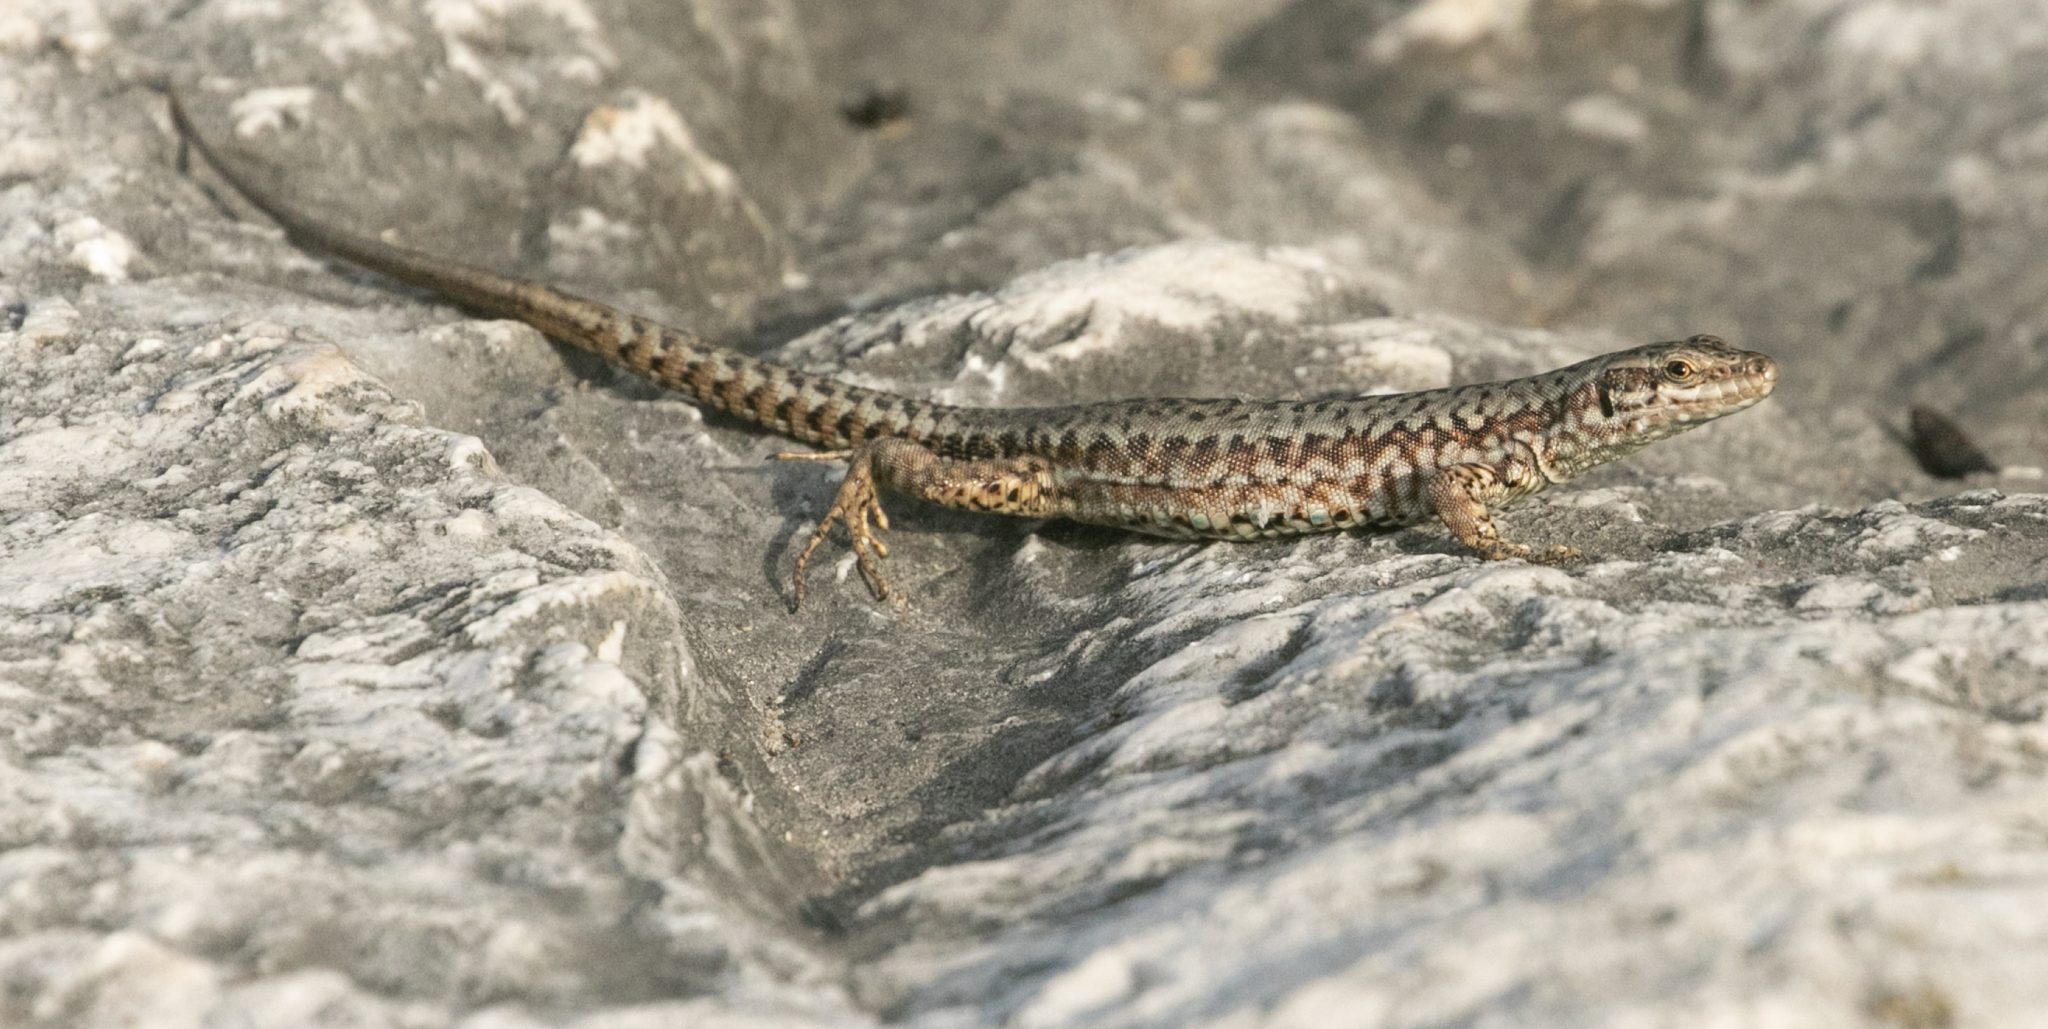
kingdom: Animalia
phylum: Chordata
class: Squamata
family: Lacertidae
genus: Podarcis
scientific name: Podarcis muralis
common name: Common wall lizard
